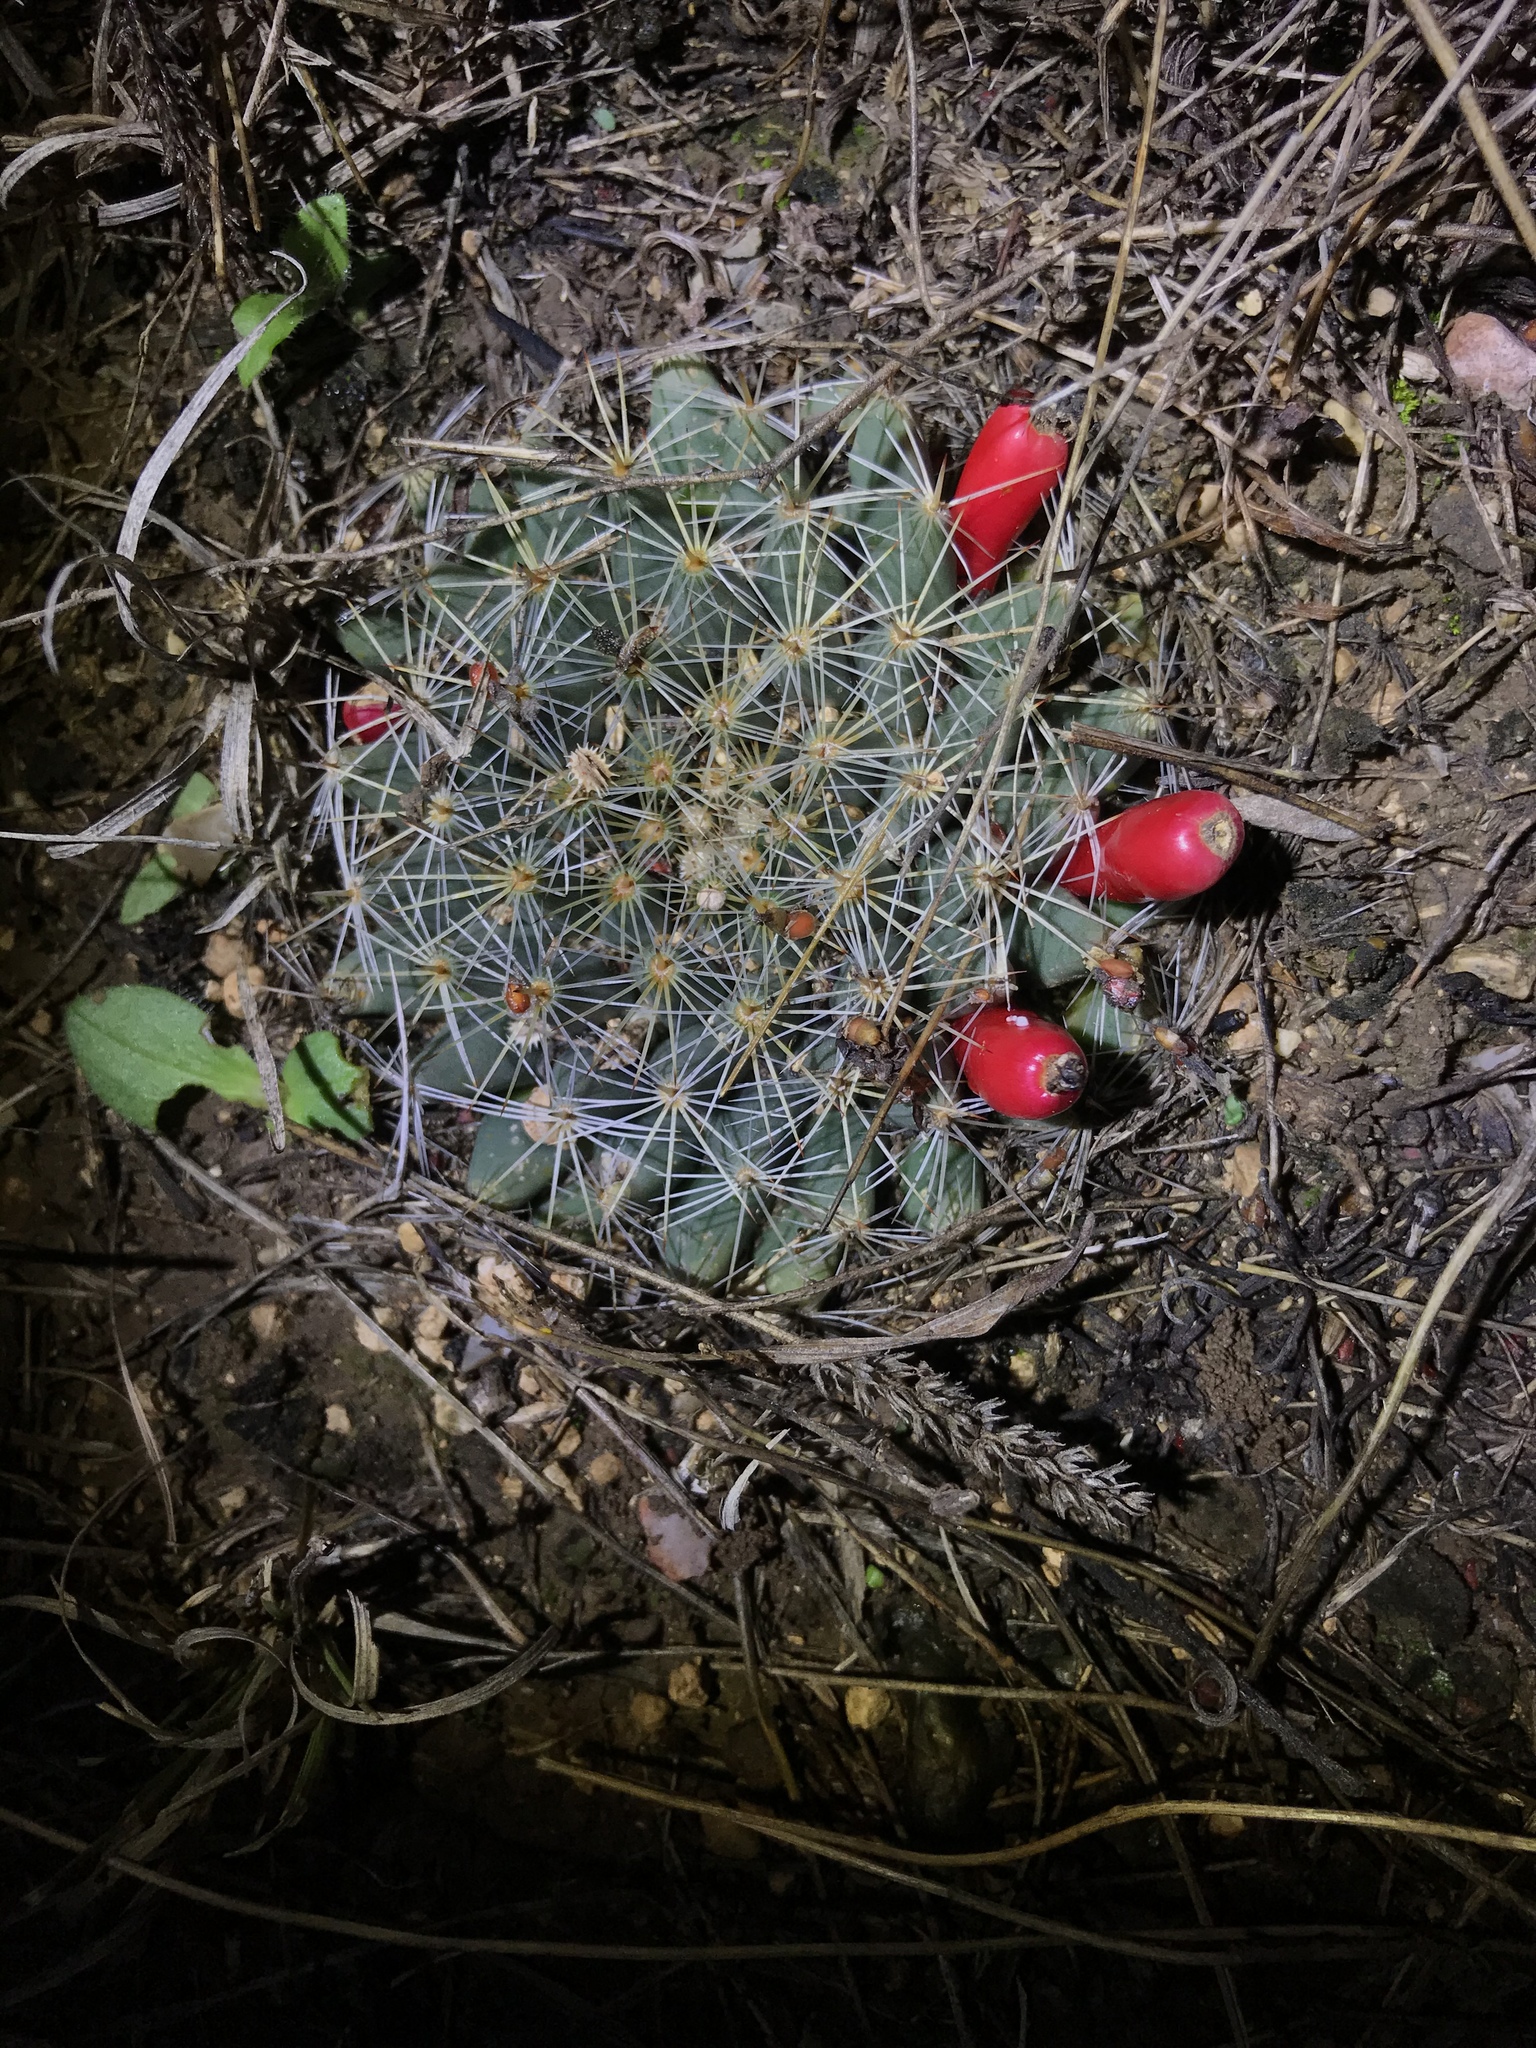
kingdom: Plantae
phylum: Tracheophyta
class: Magnoliopsida
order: Caryophyllales
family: Cactaceae
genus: Mammillaria
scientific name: Mammillaria heyderi
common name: Little nipple cactus
